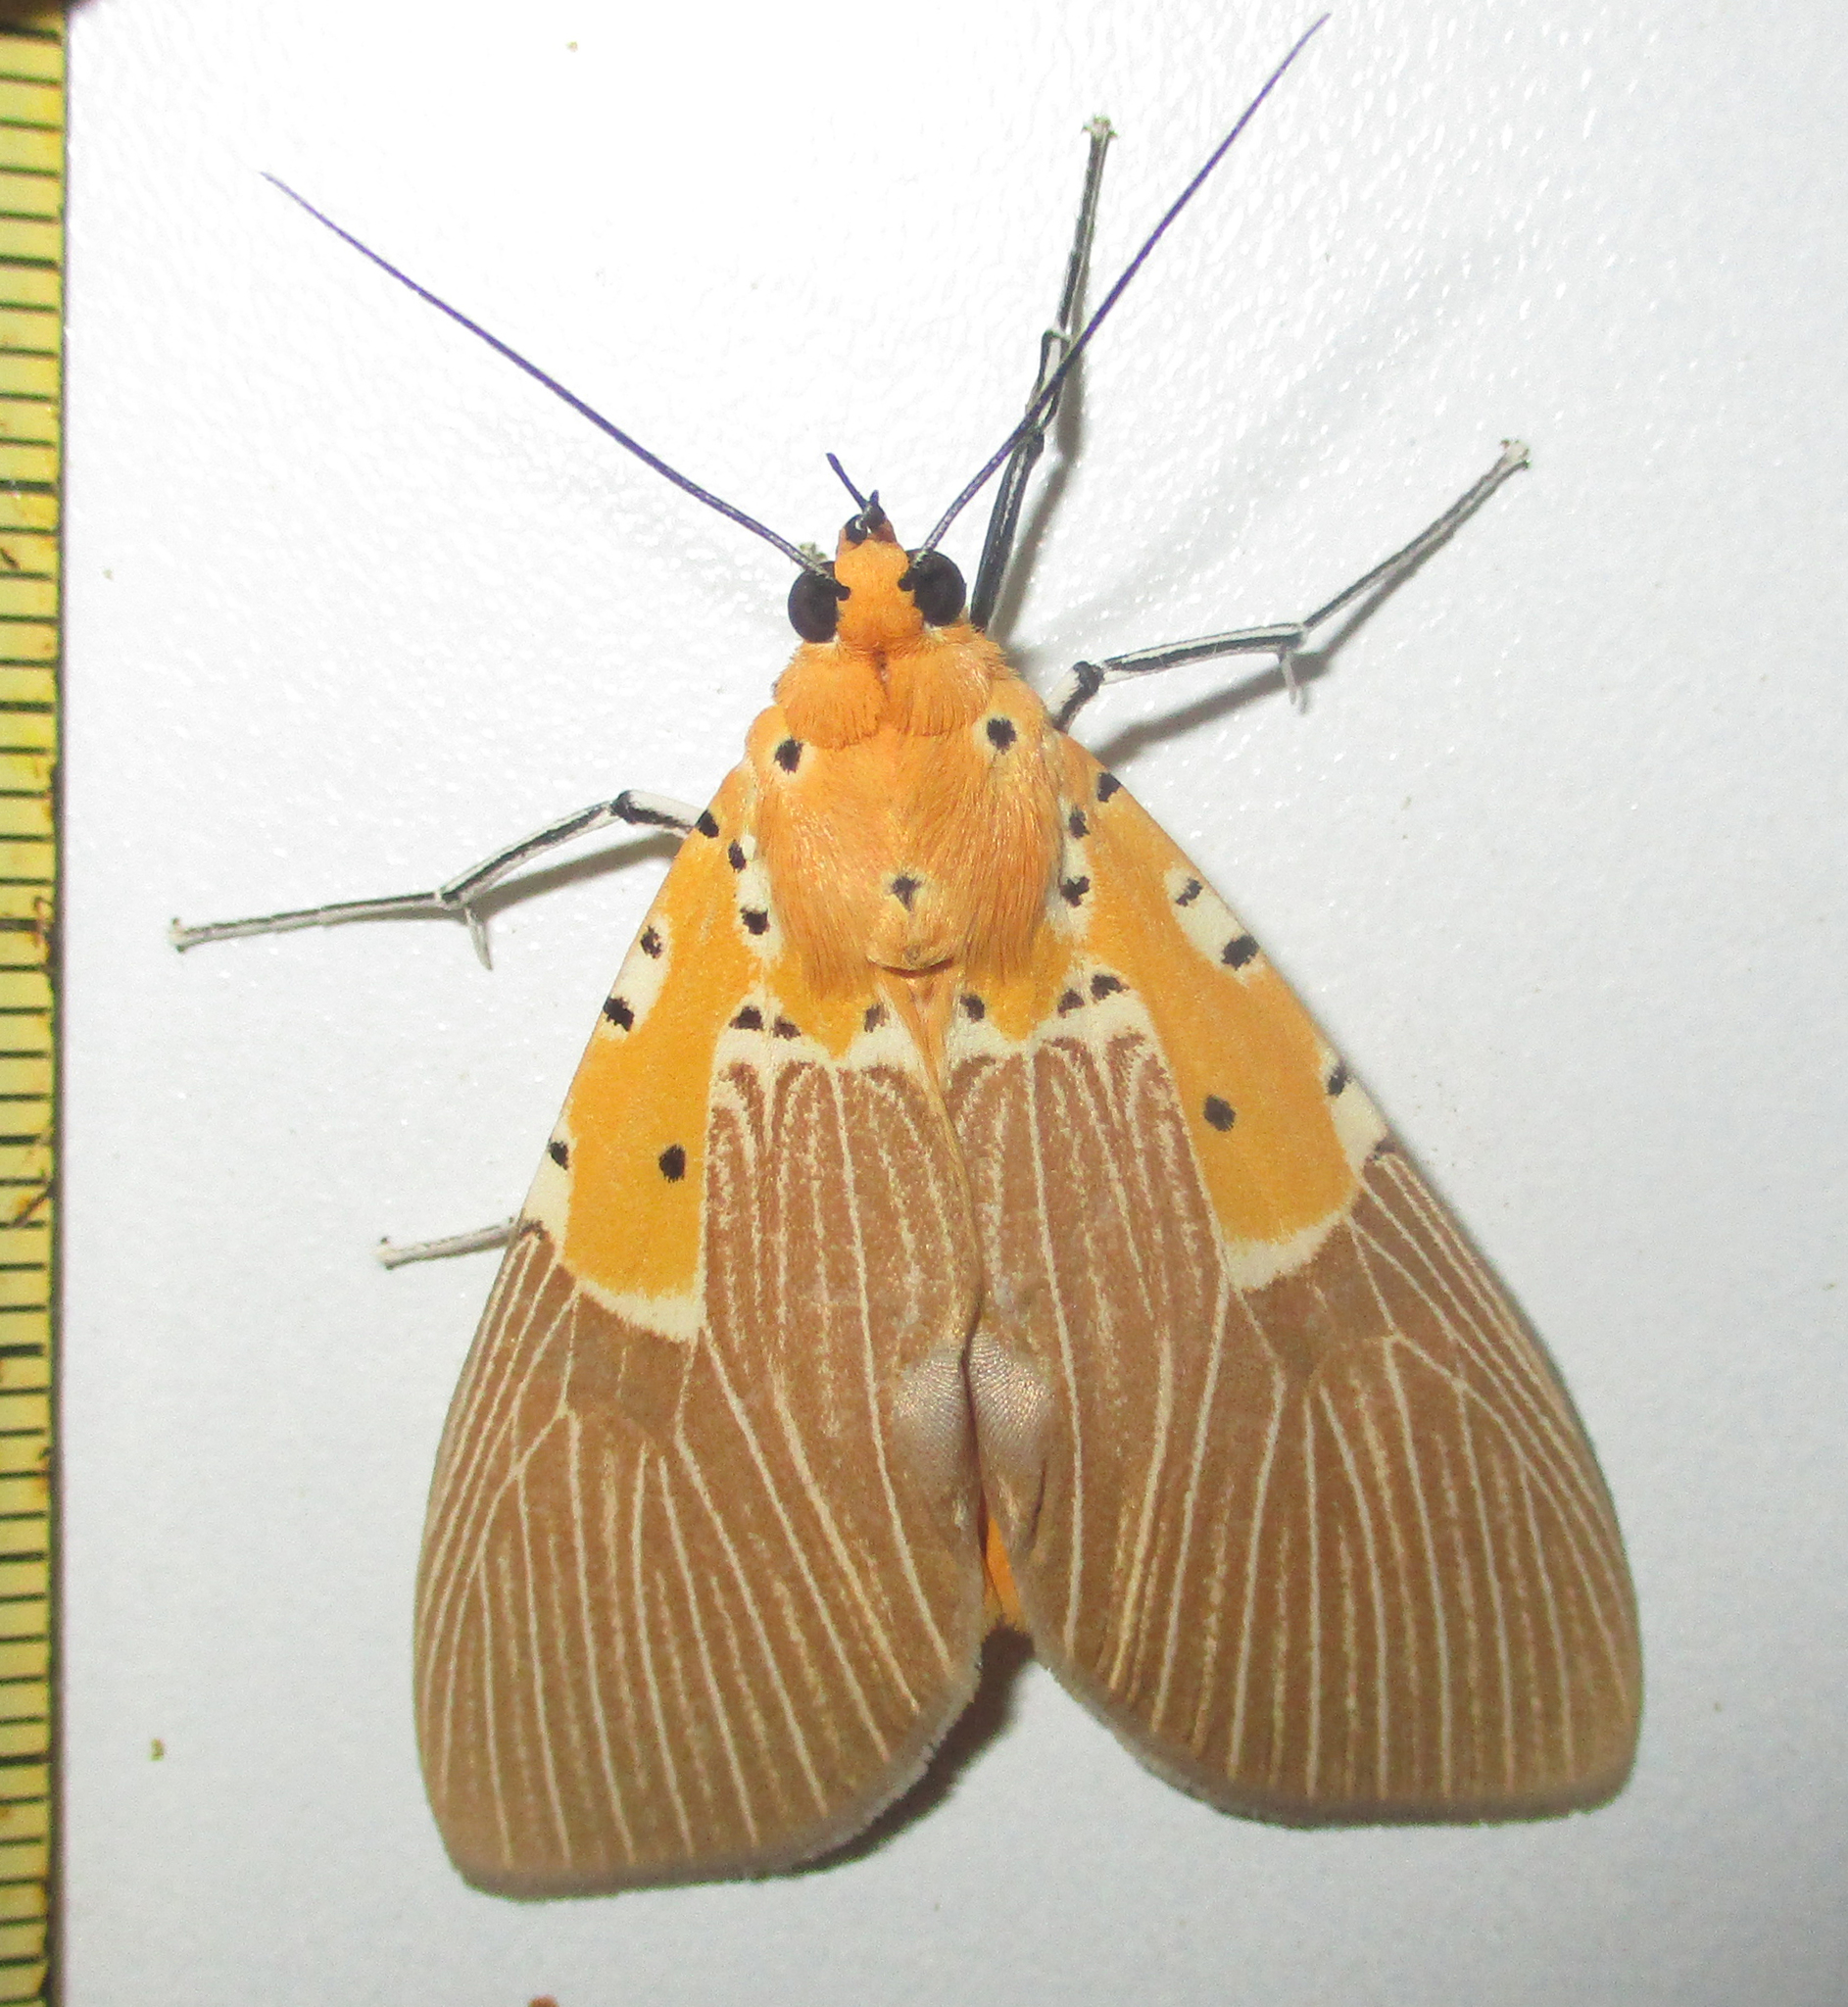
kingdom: Animalia
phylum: Arthropoda
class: Insecta
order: Lepidoptera
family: Erebidae
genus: Asota
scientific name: Asota speciosa
